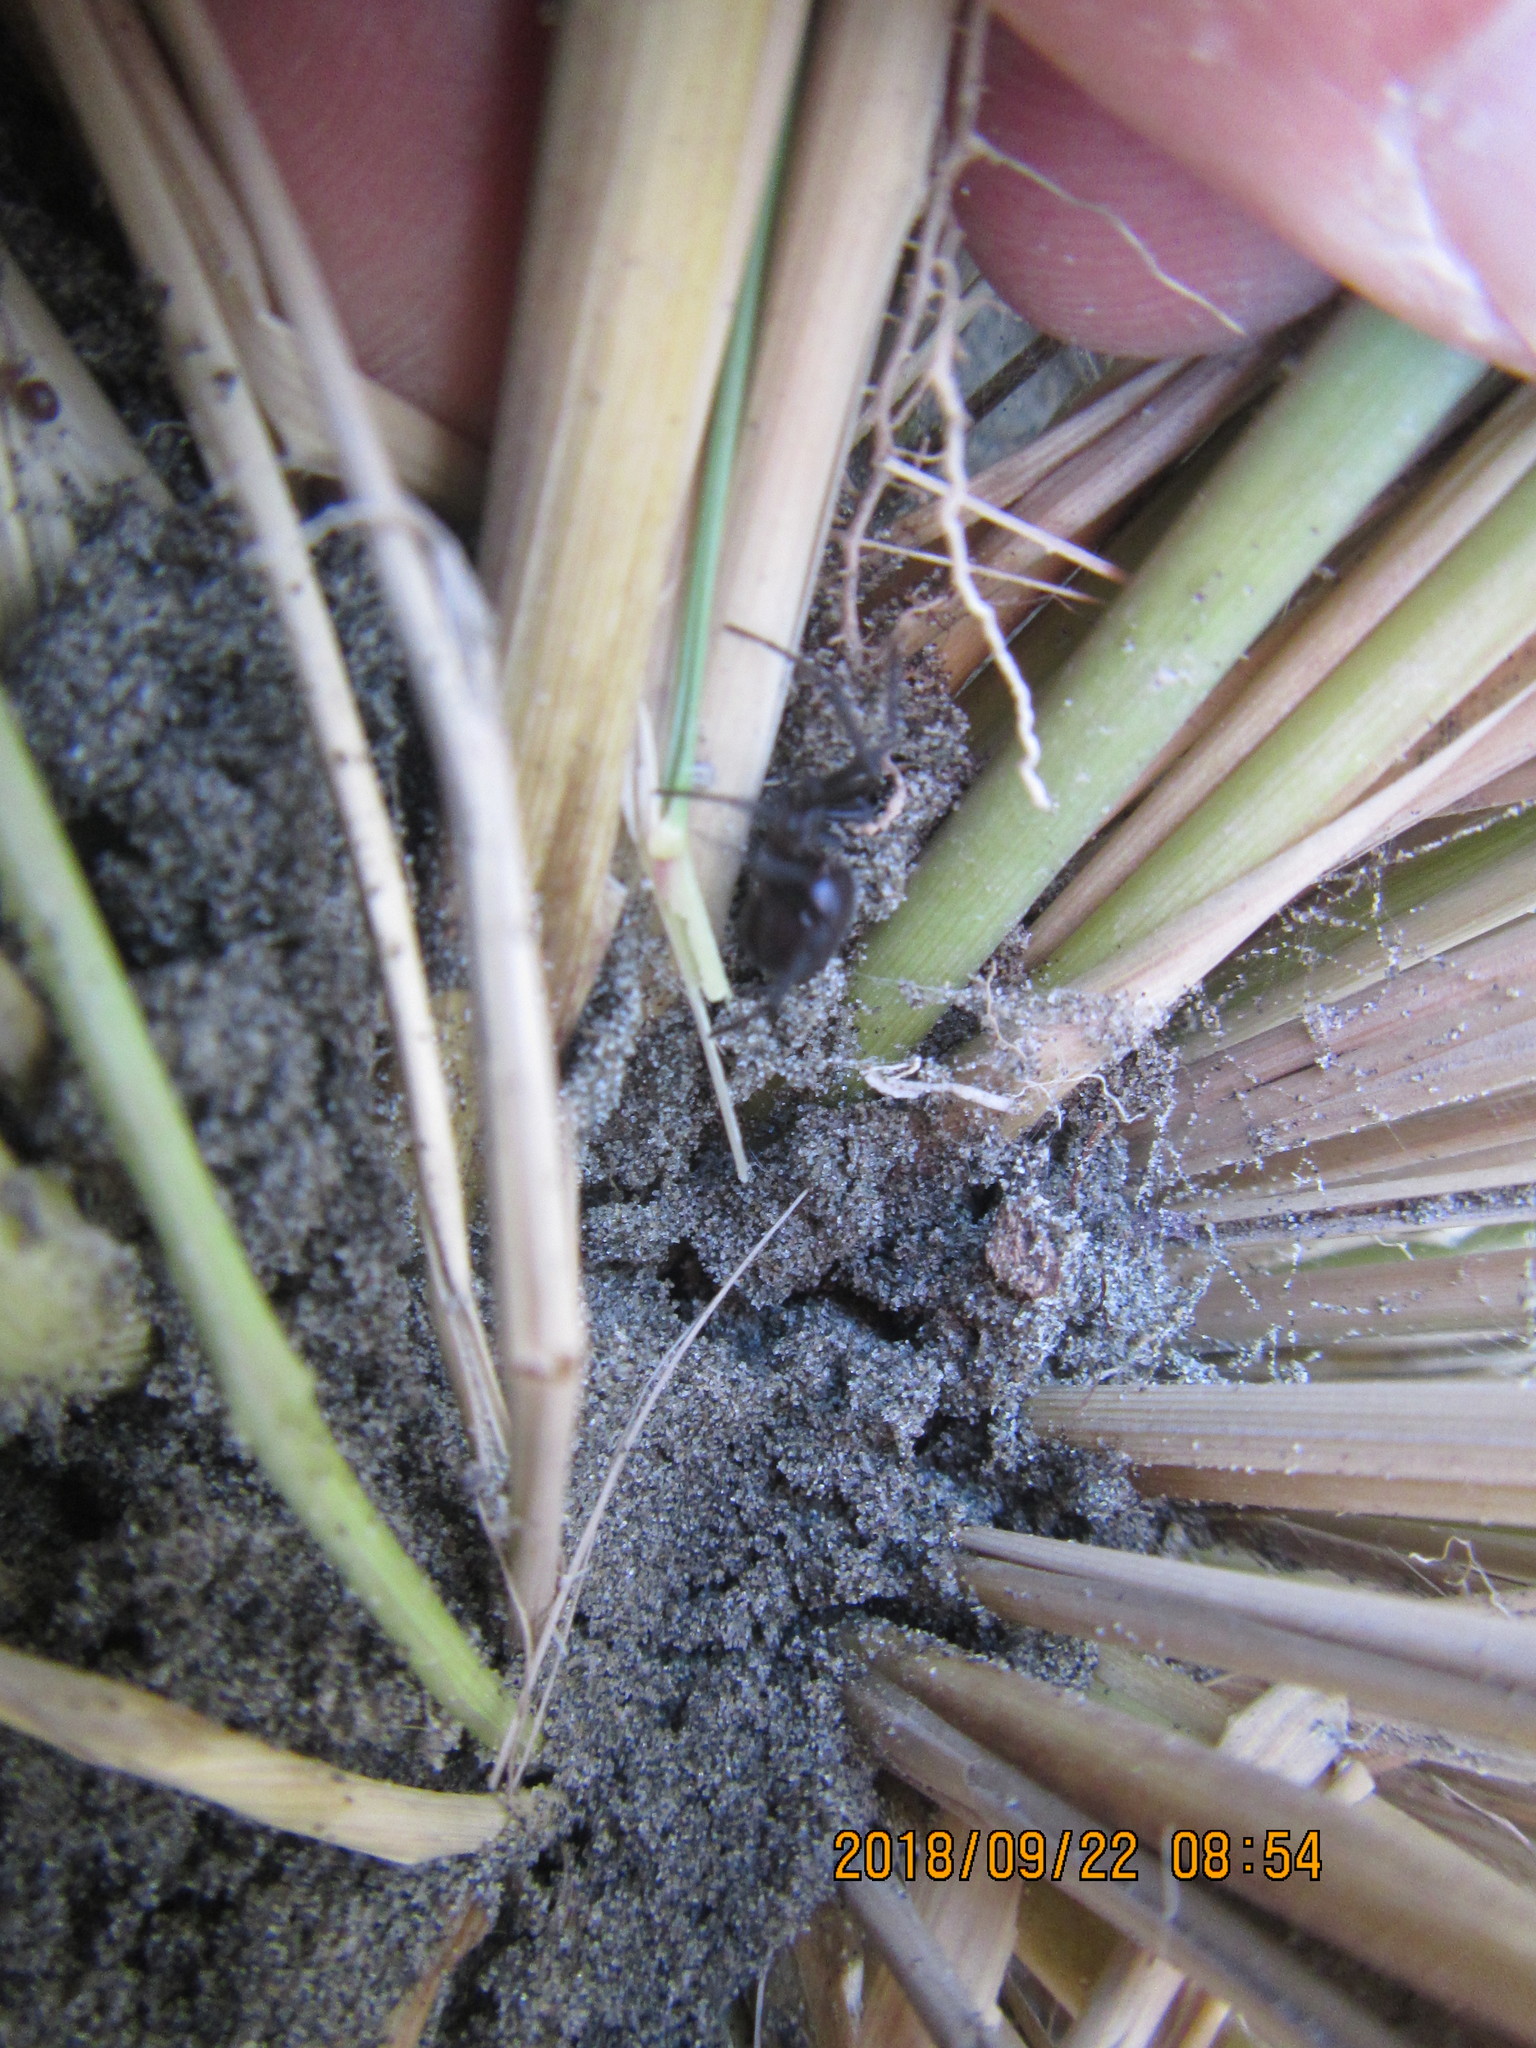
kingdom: Animalia
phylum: Arthropoda
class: Arachnida
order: Araneae
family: Theridiidae
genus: Steatoda
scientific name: Steatoda capensis
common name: Cobweb weaver
